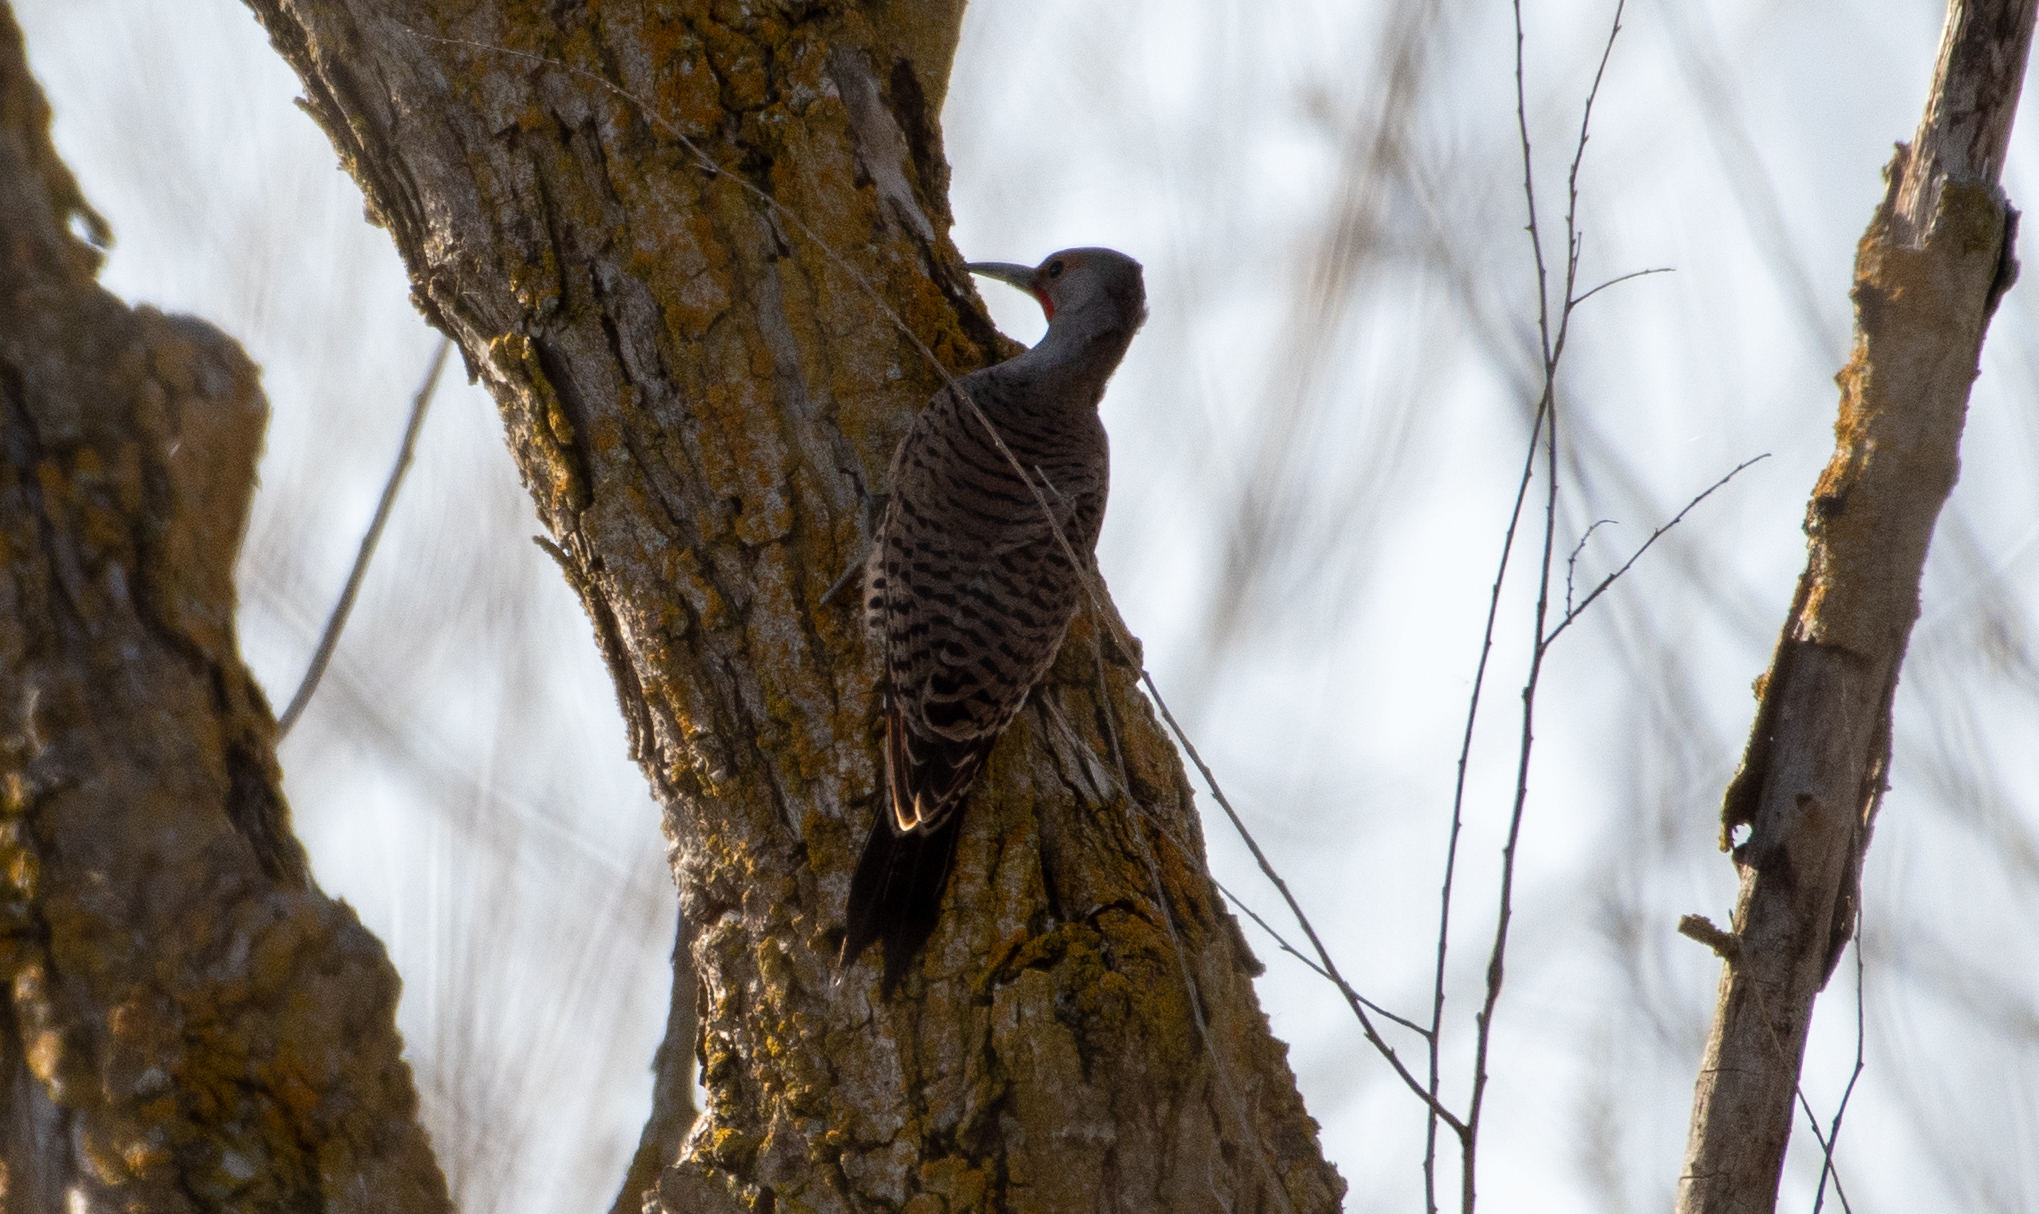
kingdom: Animalia
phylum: Chordata
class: Aves
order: Piciformes
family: Picidae
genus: Colaptes
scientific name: Colaptes auratus
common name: Northern flicker
